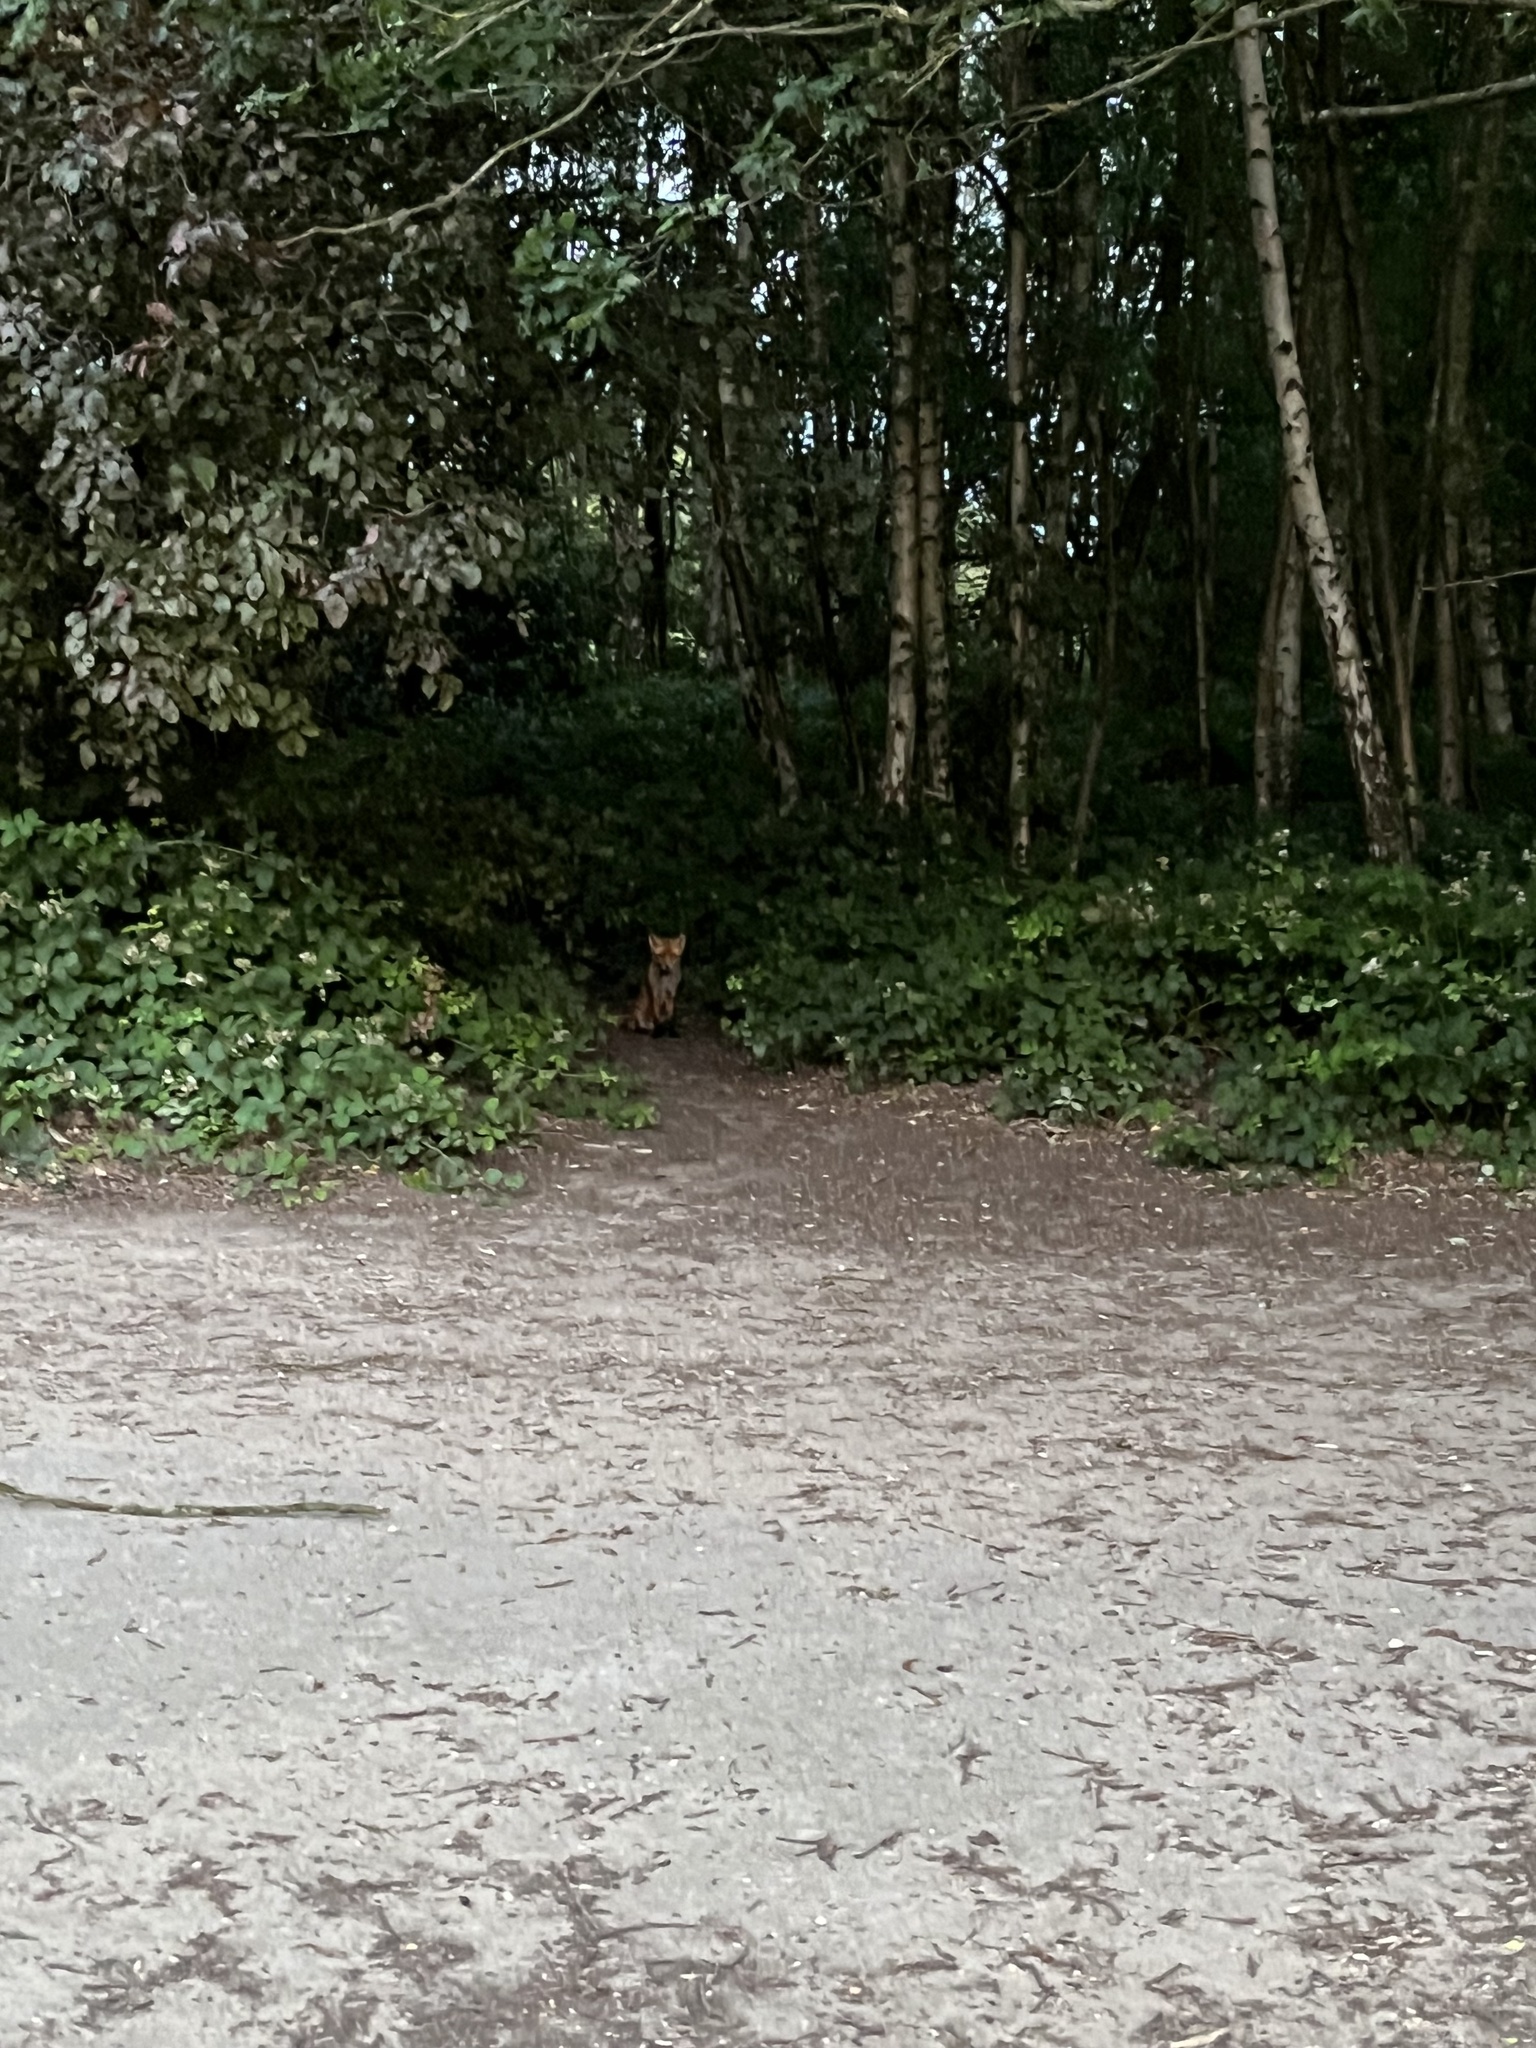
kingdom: Animalia
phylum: Chordata
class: Mammalia
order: Carnivora
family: Canidae
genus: Vulpes
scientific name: Vulpes vulpes
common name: Red fox
